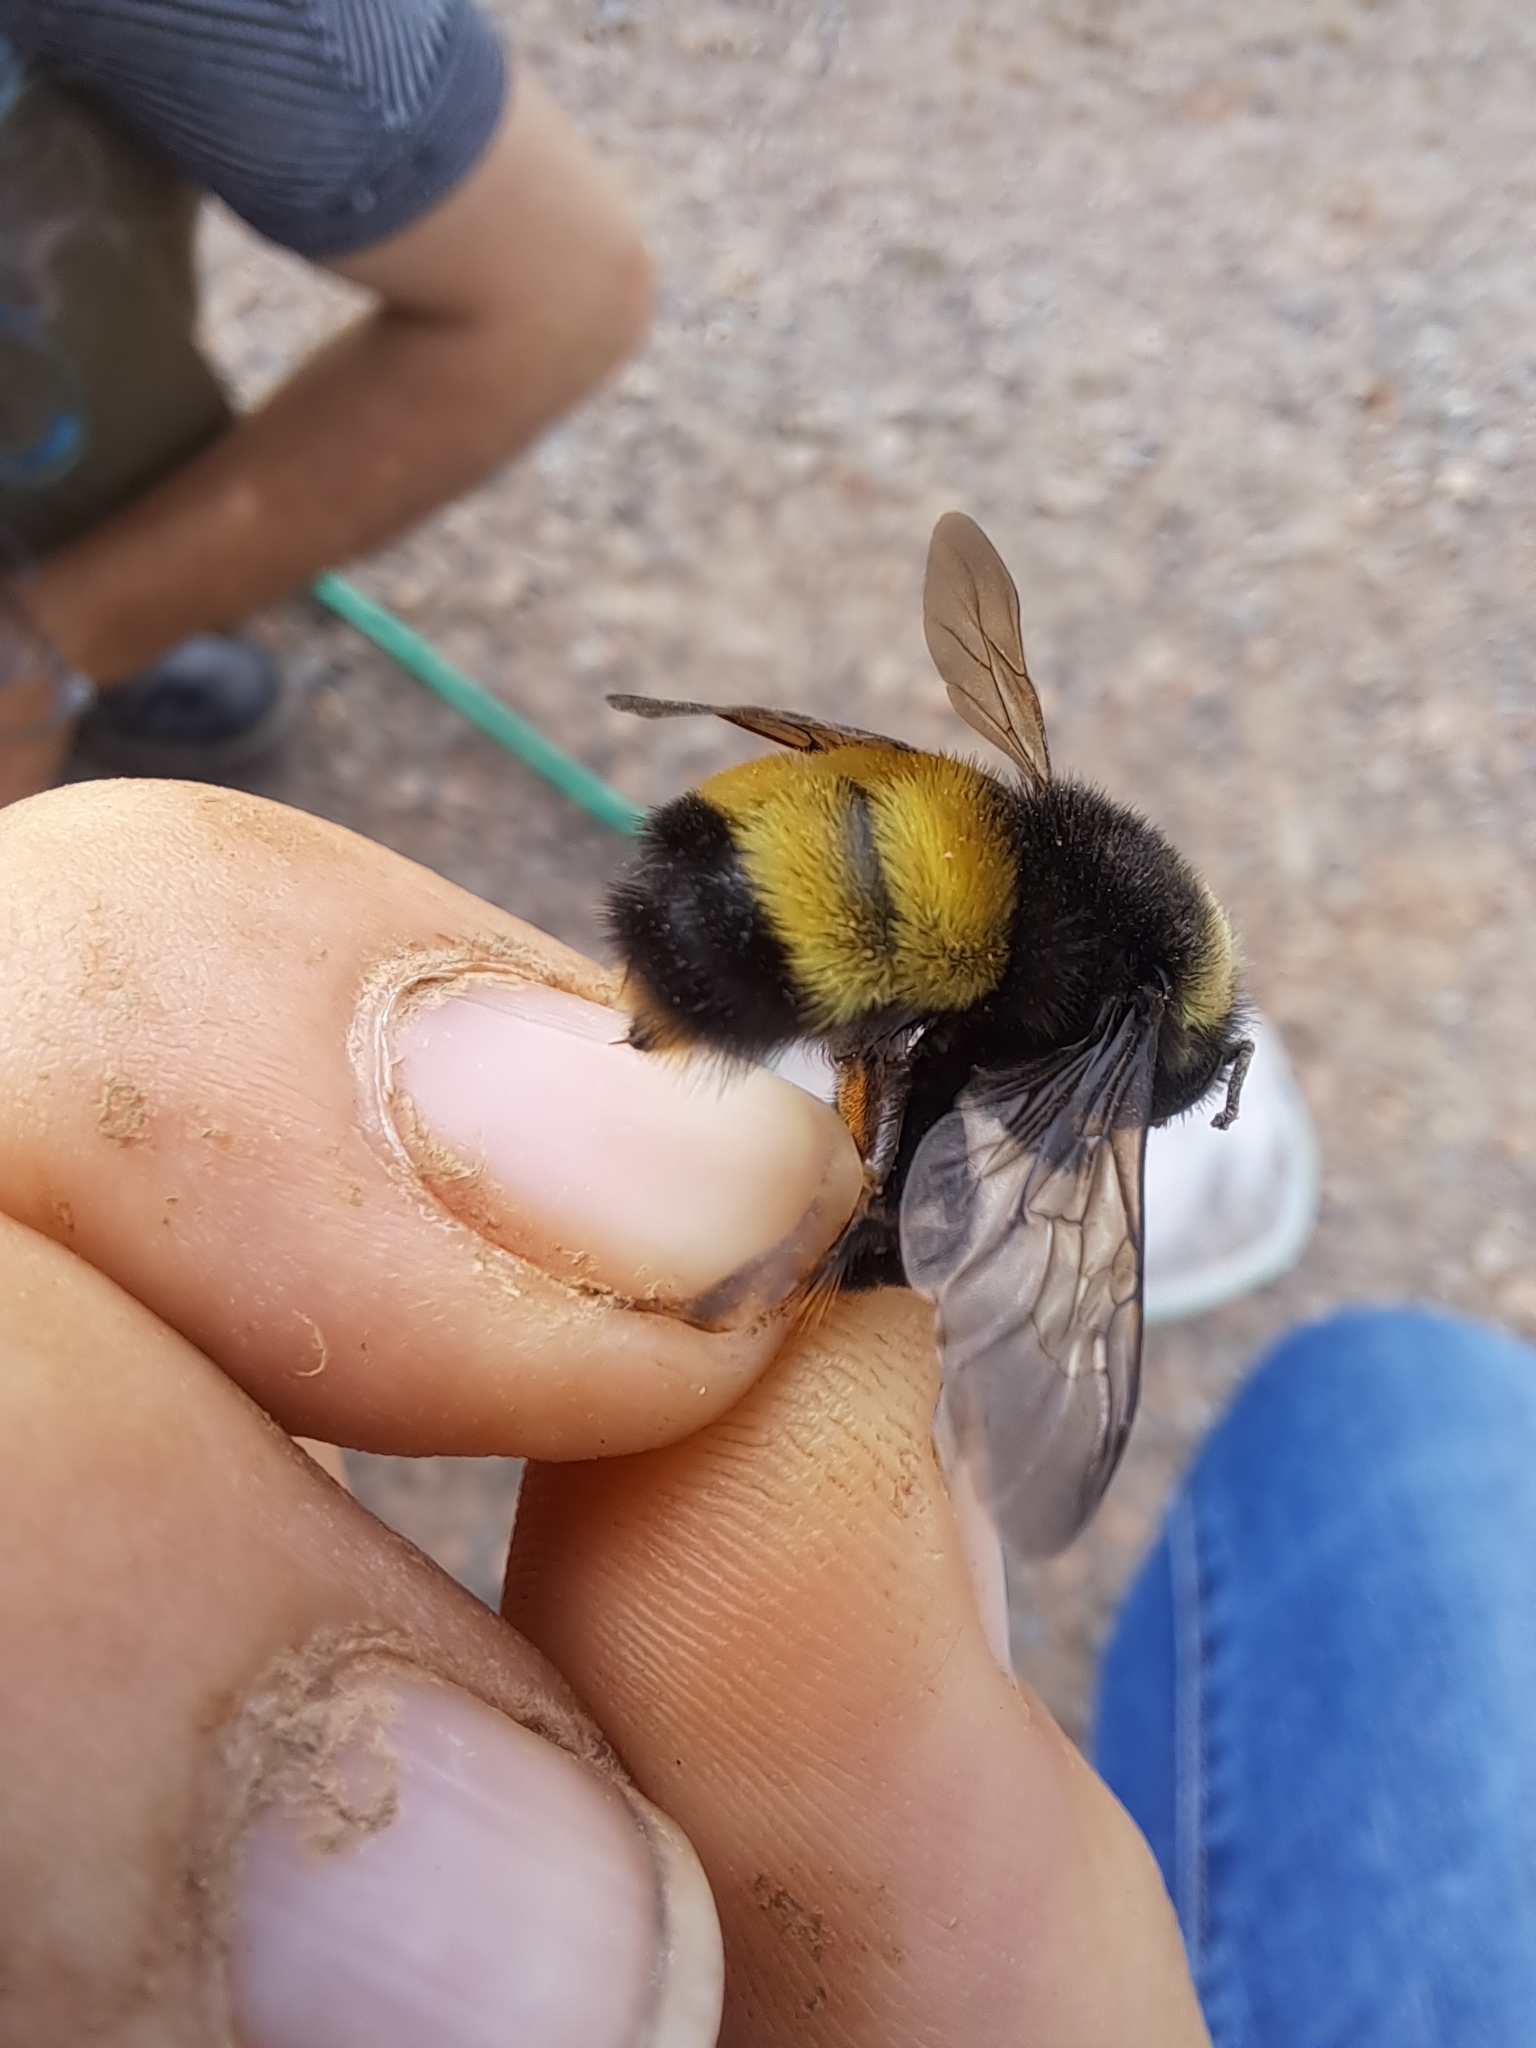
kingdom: Animalia
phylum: Arthropoda
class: Insecta
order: Hymenoptera
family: Apidae
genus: Bombus
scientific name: Bombus terricola
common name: Yellow-banded bumble bee
